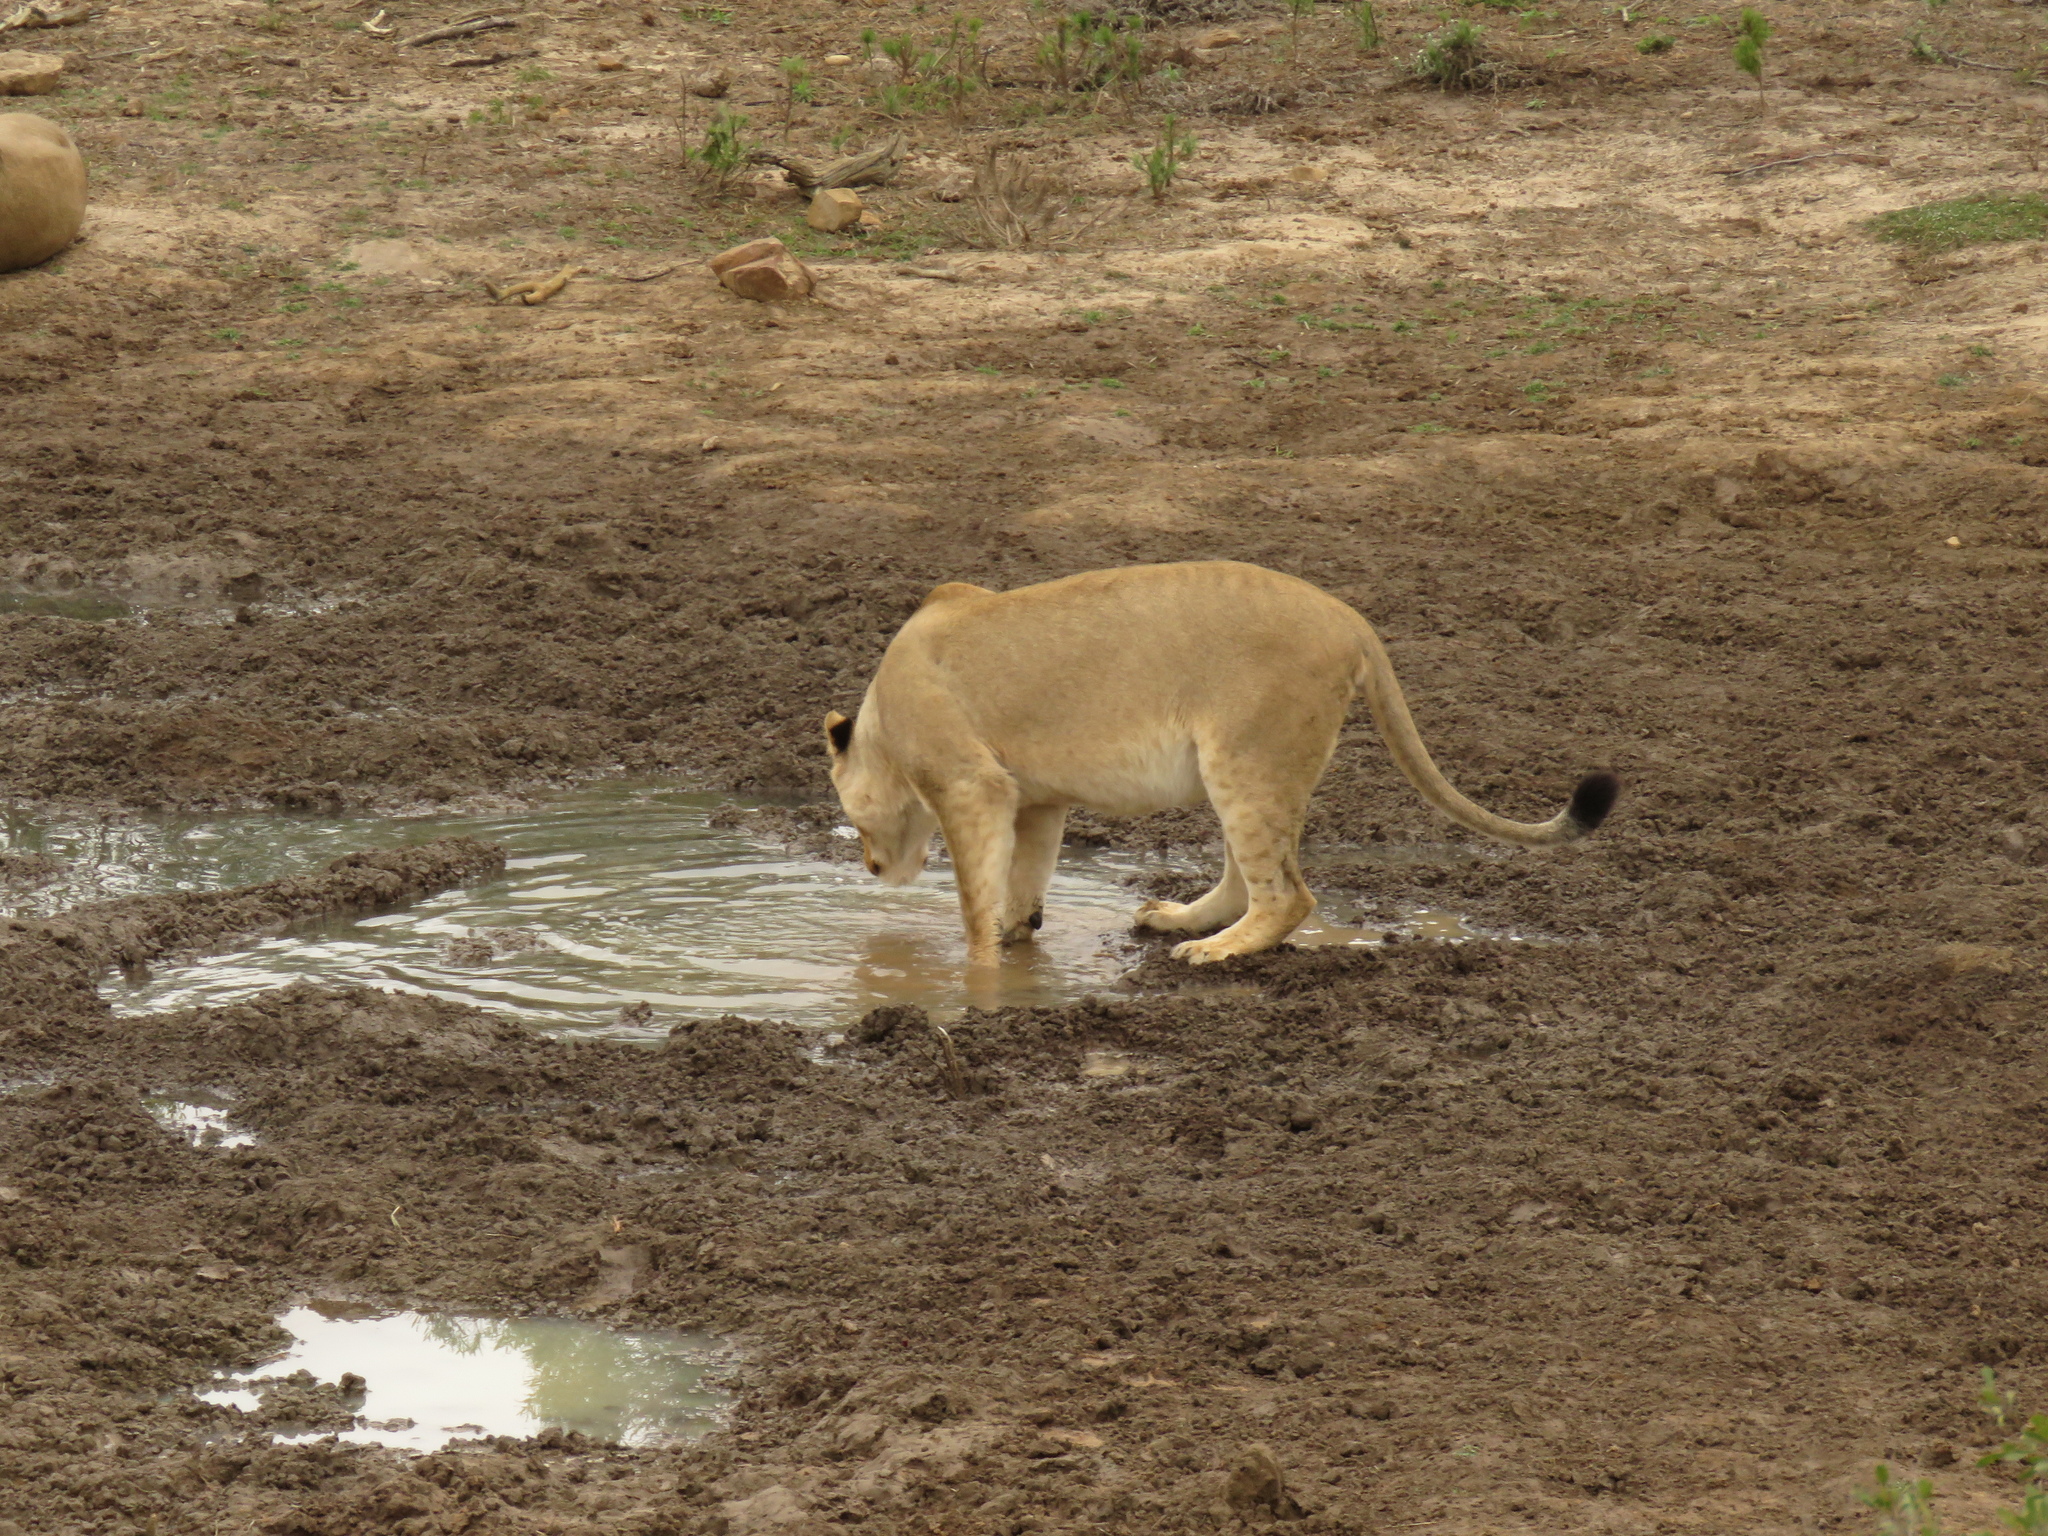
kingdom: Animalia
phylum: Chordata
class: Mammalia
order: Carnivora
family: Felidae
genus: Panthera
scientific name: Panthera leo
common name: Lion
